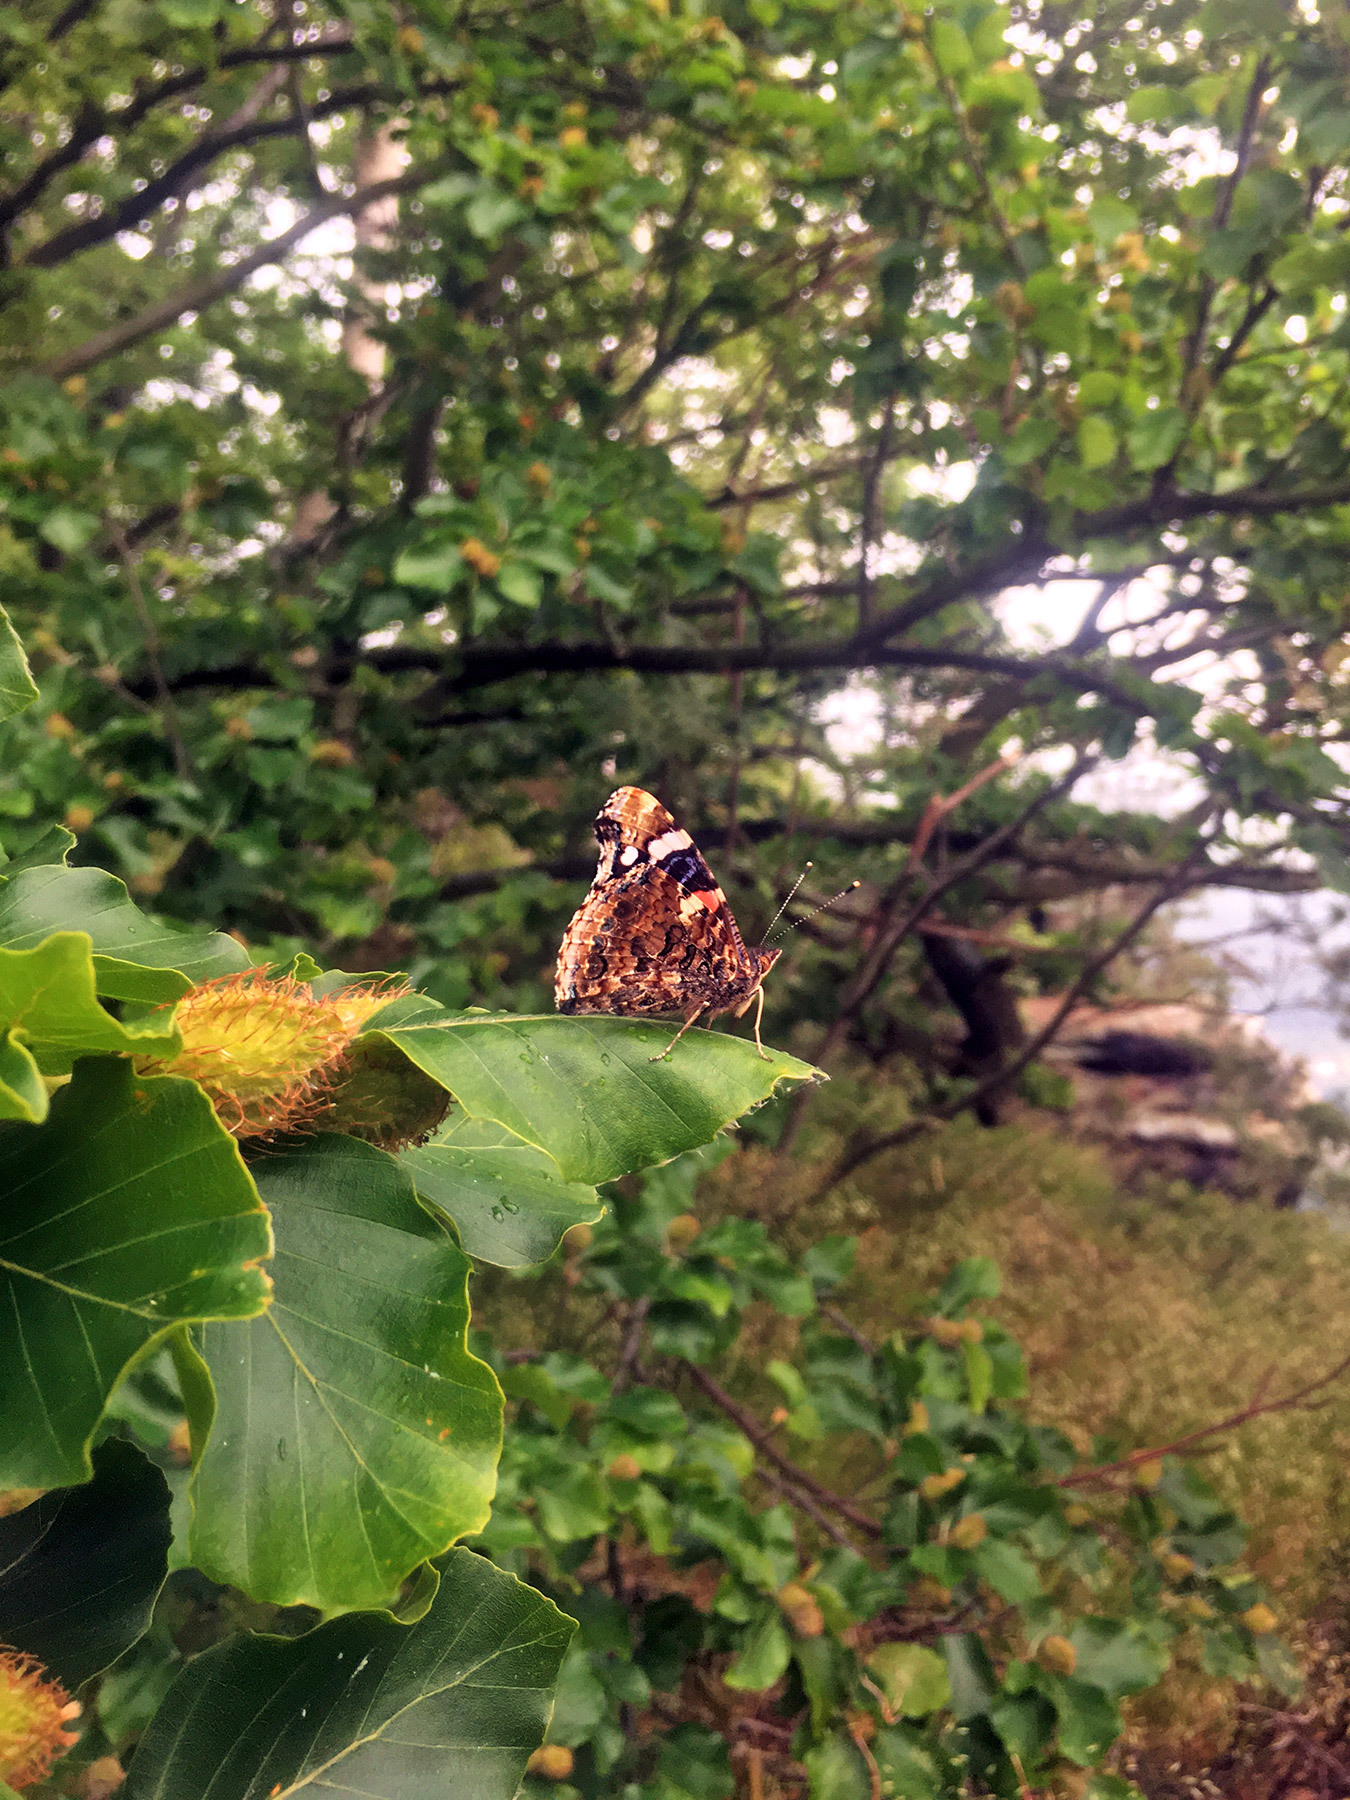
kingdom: Animalia
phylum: Arthropoda
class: Insecta
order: Lepidoptera
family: Nymphalidae
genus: Vanessa
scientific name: Vanessa atalanta
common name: Red admiral
